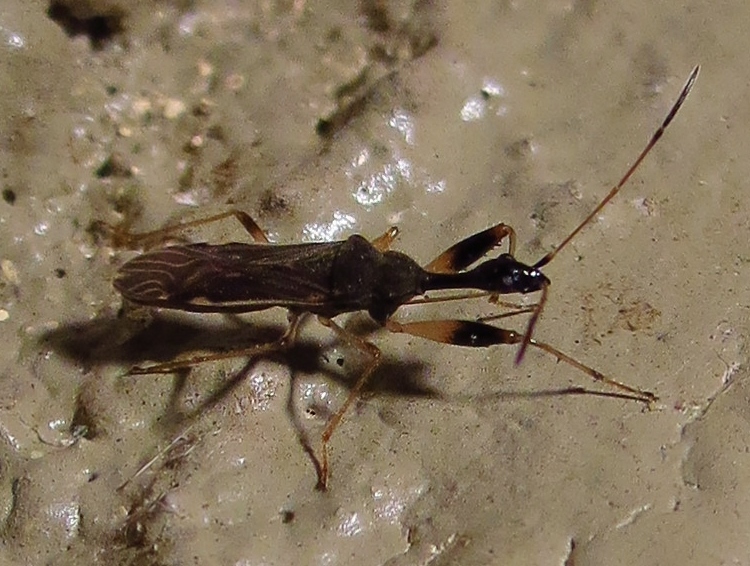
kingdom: Animalia
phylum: Arthropoda
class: Insecta
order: Hemiptera
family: Rhyparochromidae
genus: Myodocha
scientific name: Myodocha serripes
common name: Long-necked seed bug
